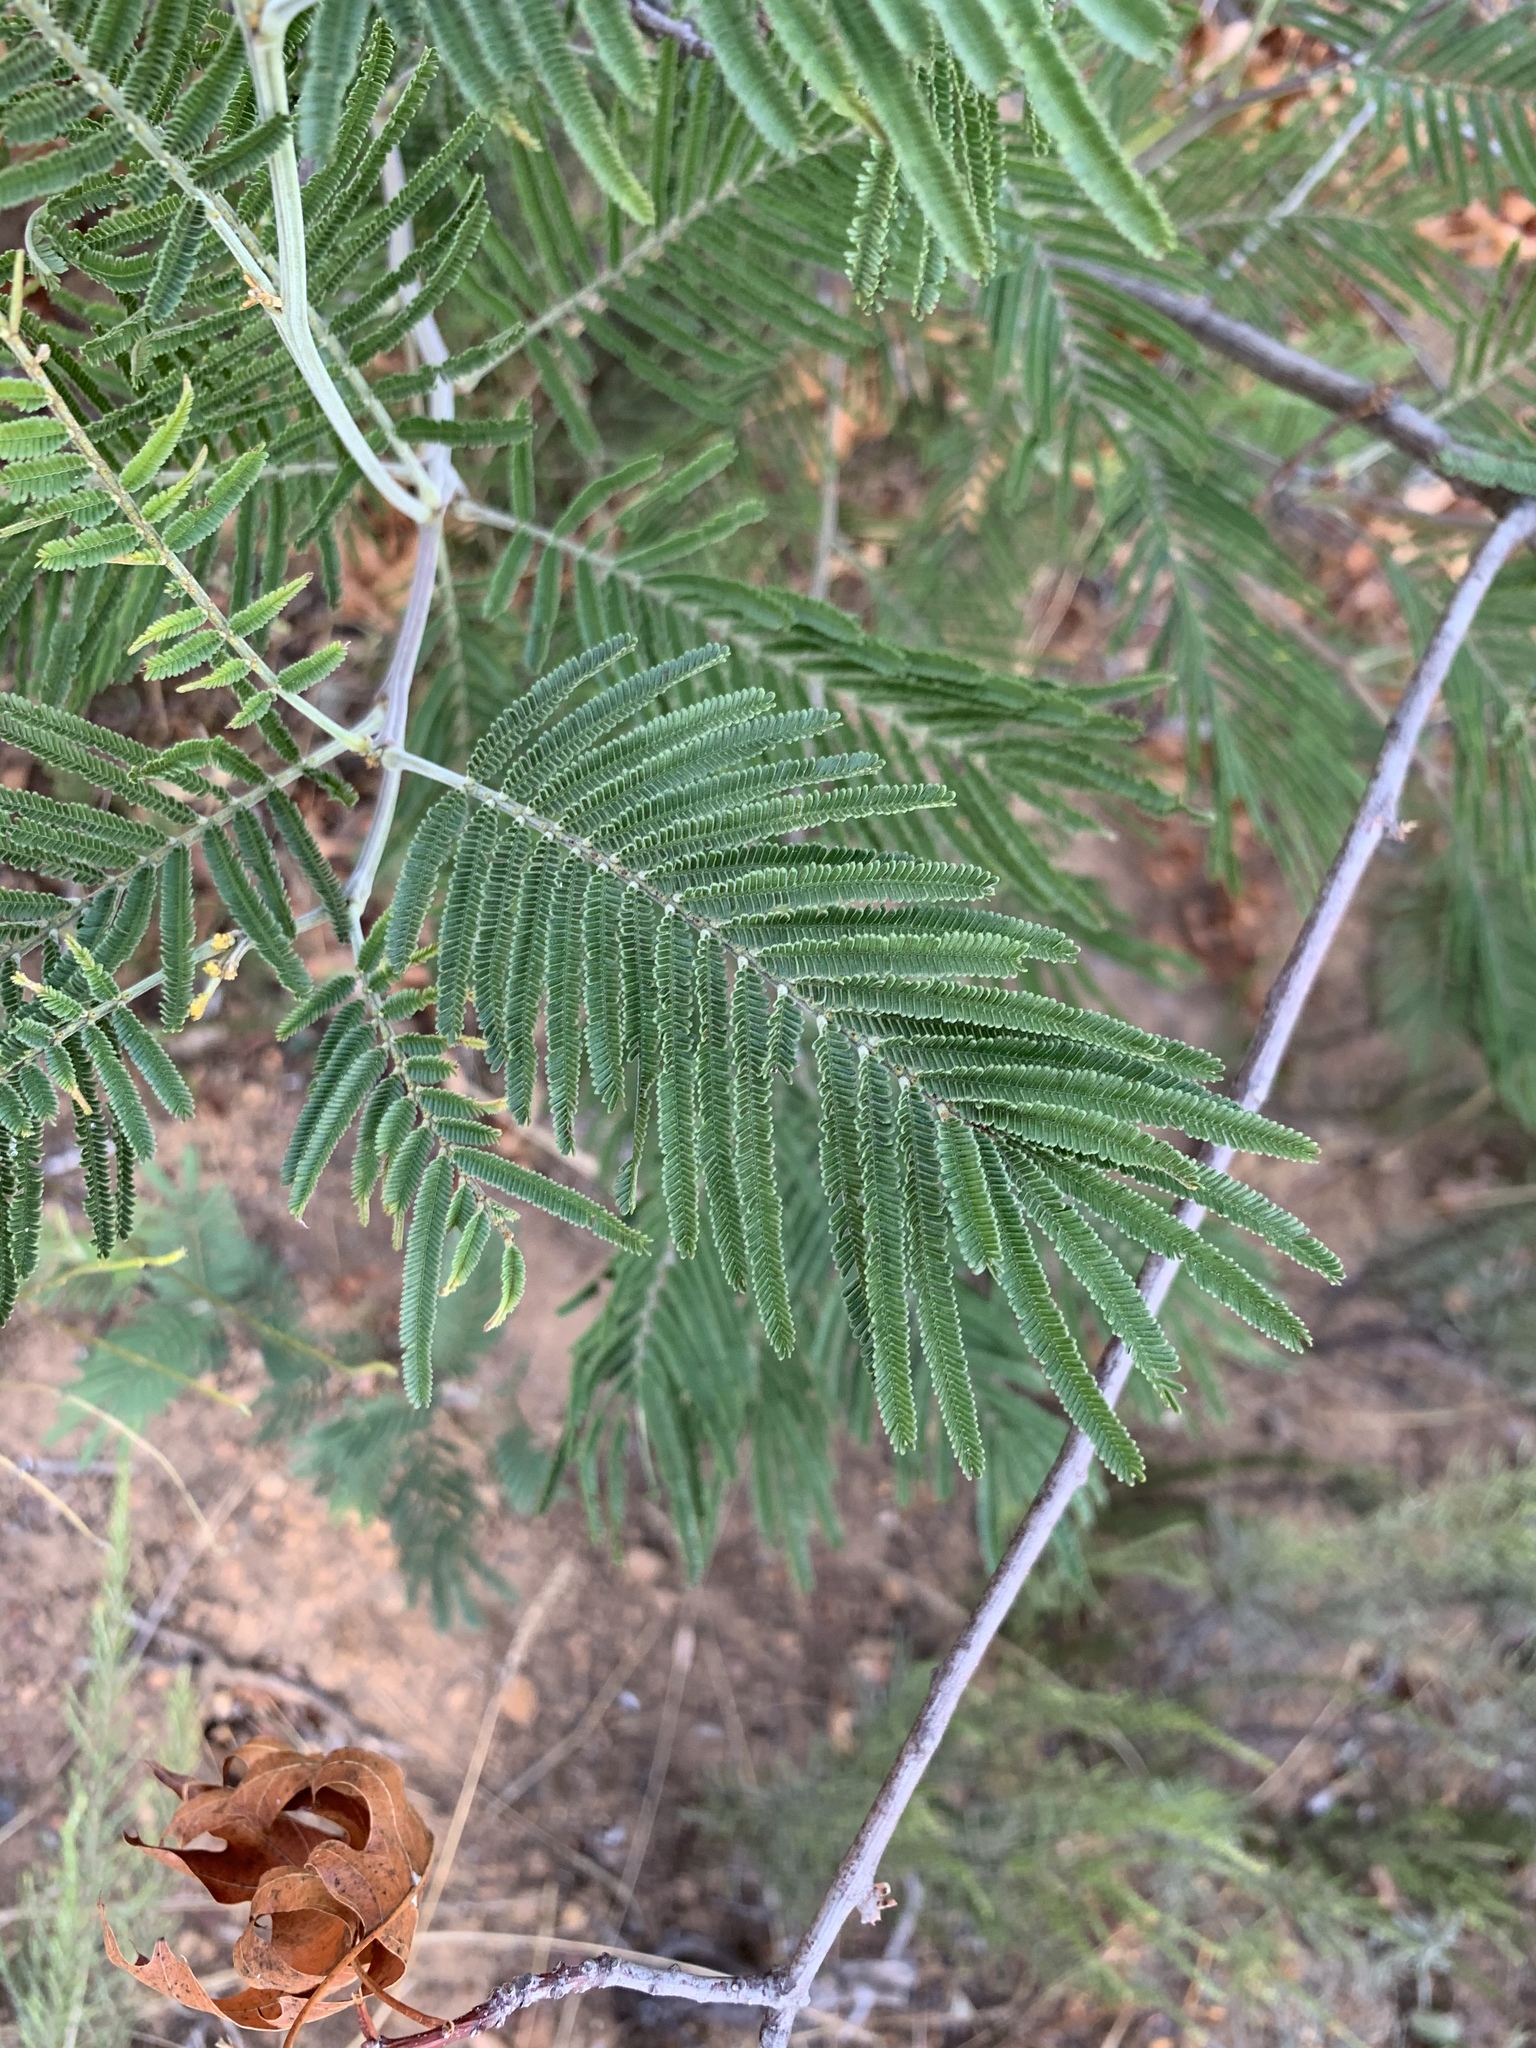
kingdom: Plantae
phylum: Tracheophyta
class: Magnoliopsida
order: Fabales
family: Fabaceae
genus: Acacia
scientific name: Acacia mearnsii
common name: Black wattle
